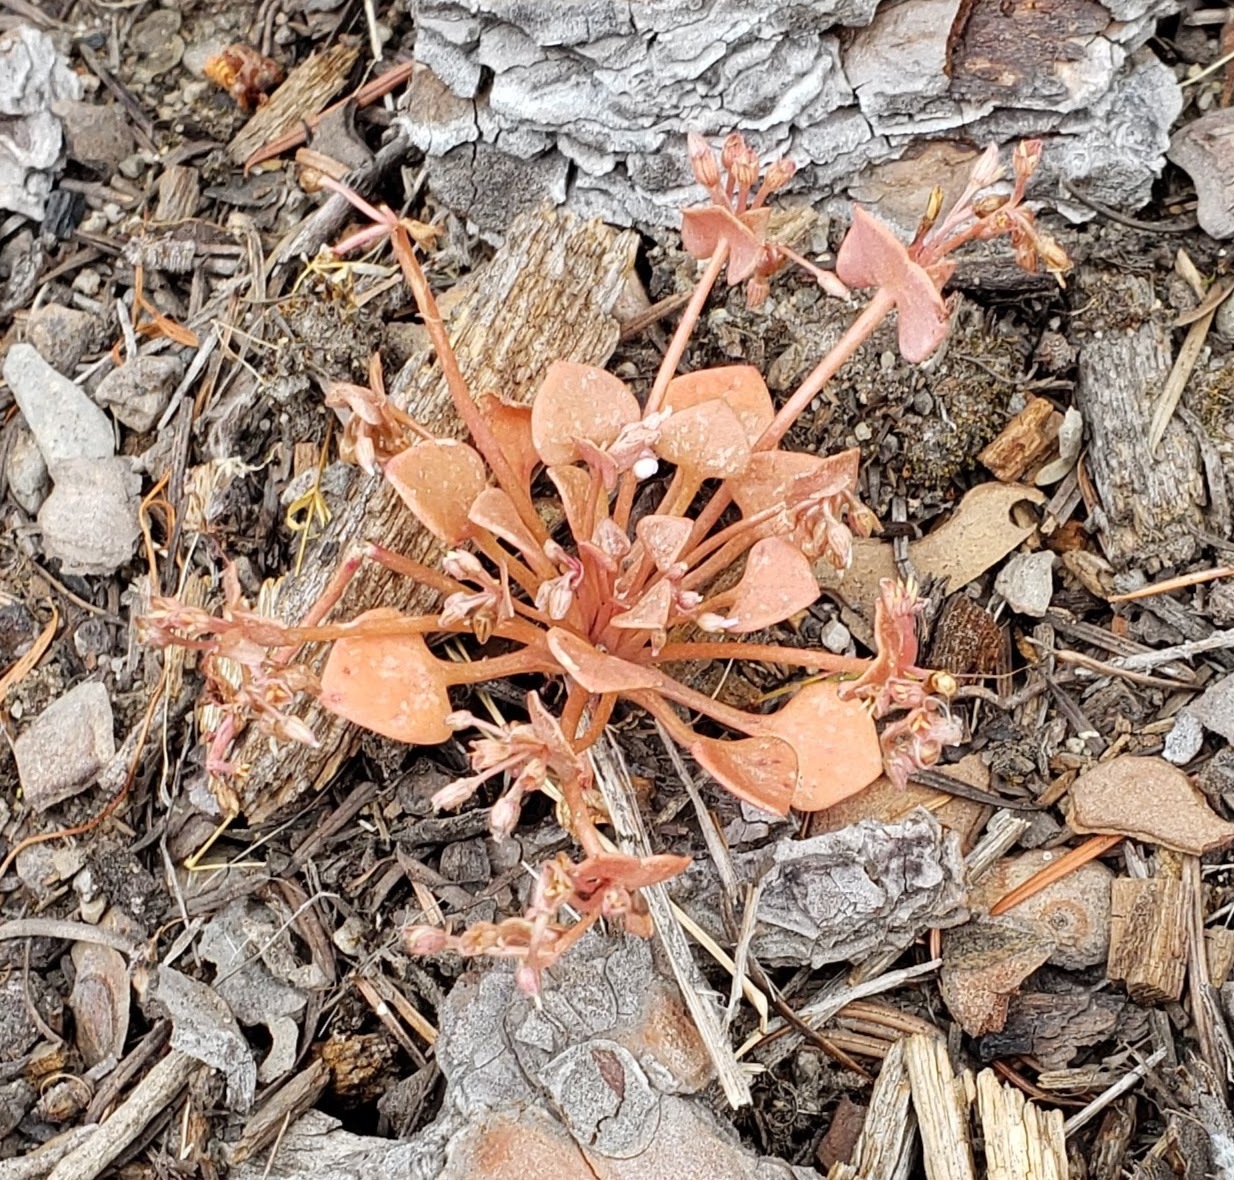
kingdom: Plantae
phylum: Tracheophyta
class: Magnoliopsida
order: Caryophyllales
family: Montiaceae
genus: Claytonia
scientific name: Claytonia rubra
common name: Erubescent miner's-lettuce
